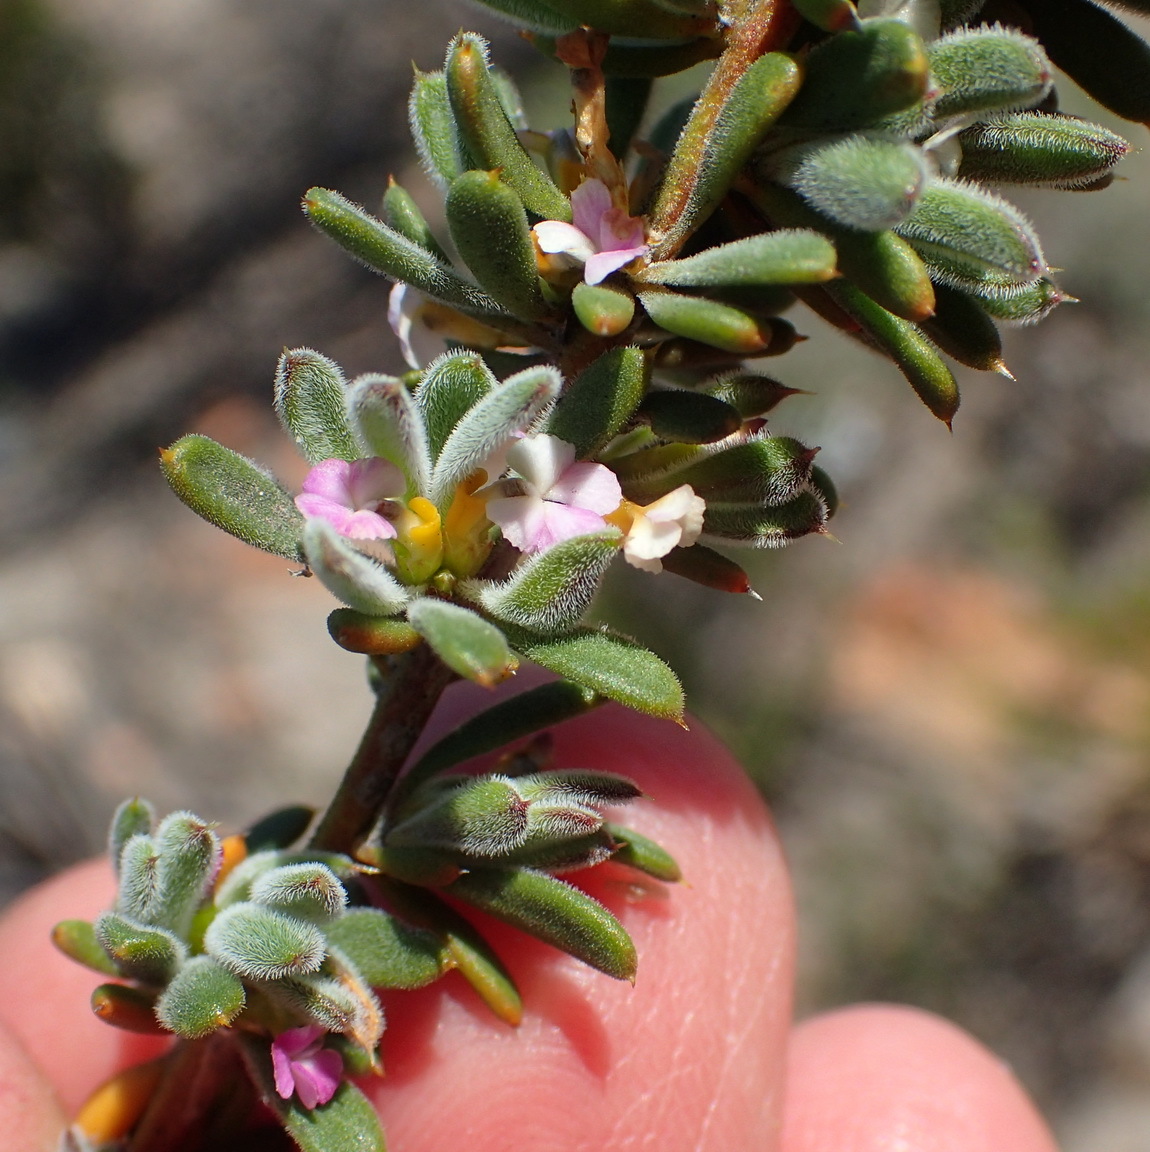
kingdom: Plantae
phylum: Tracheophyta
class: Magnoliopsida
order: Fabales
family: Polygalaceae
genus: Muraltia
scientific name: Muraltia karroica
